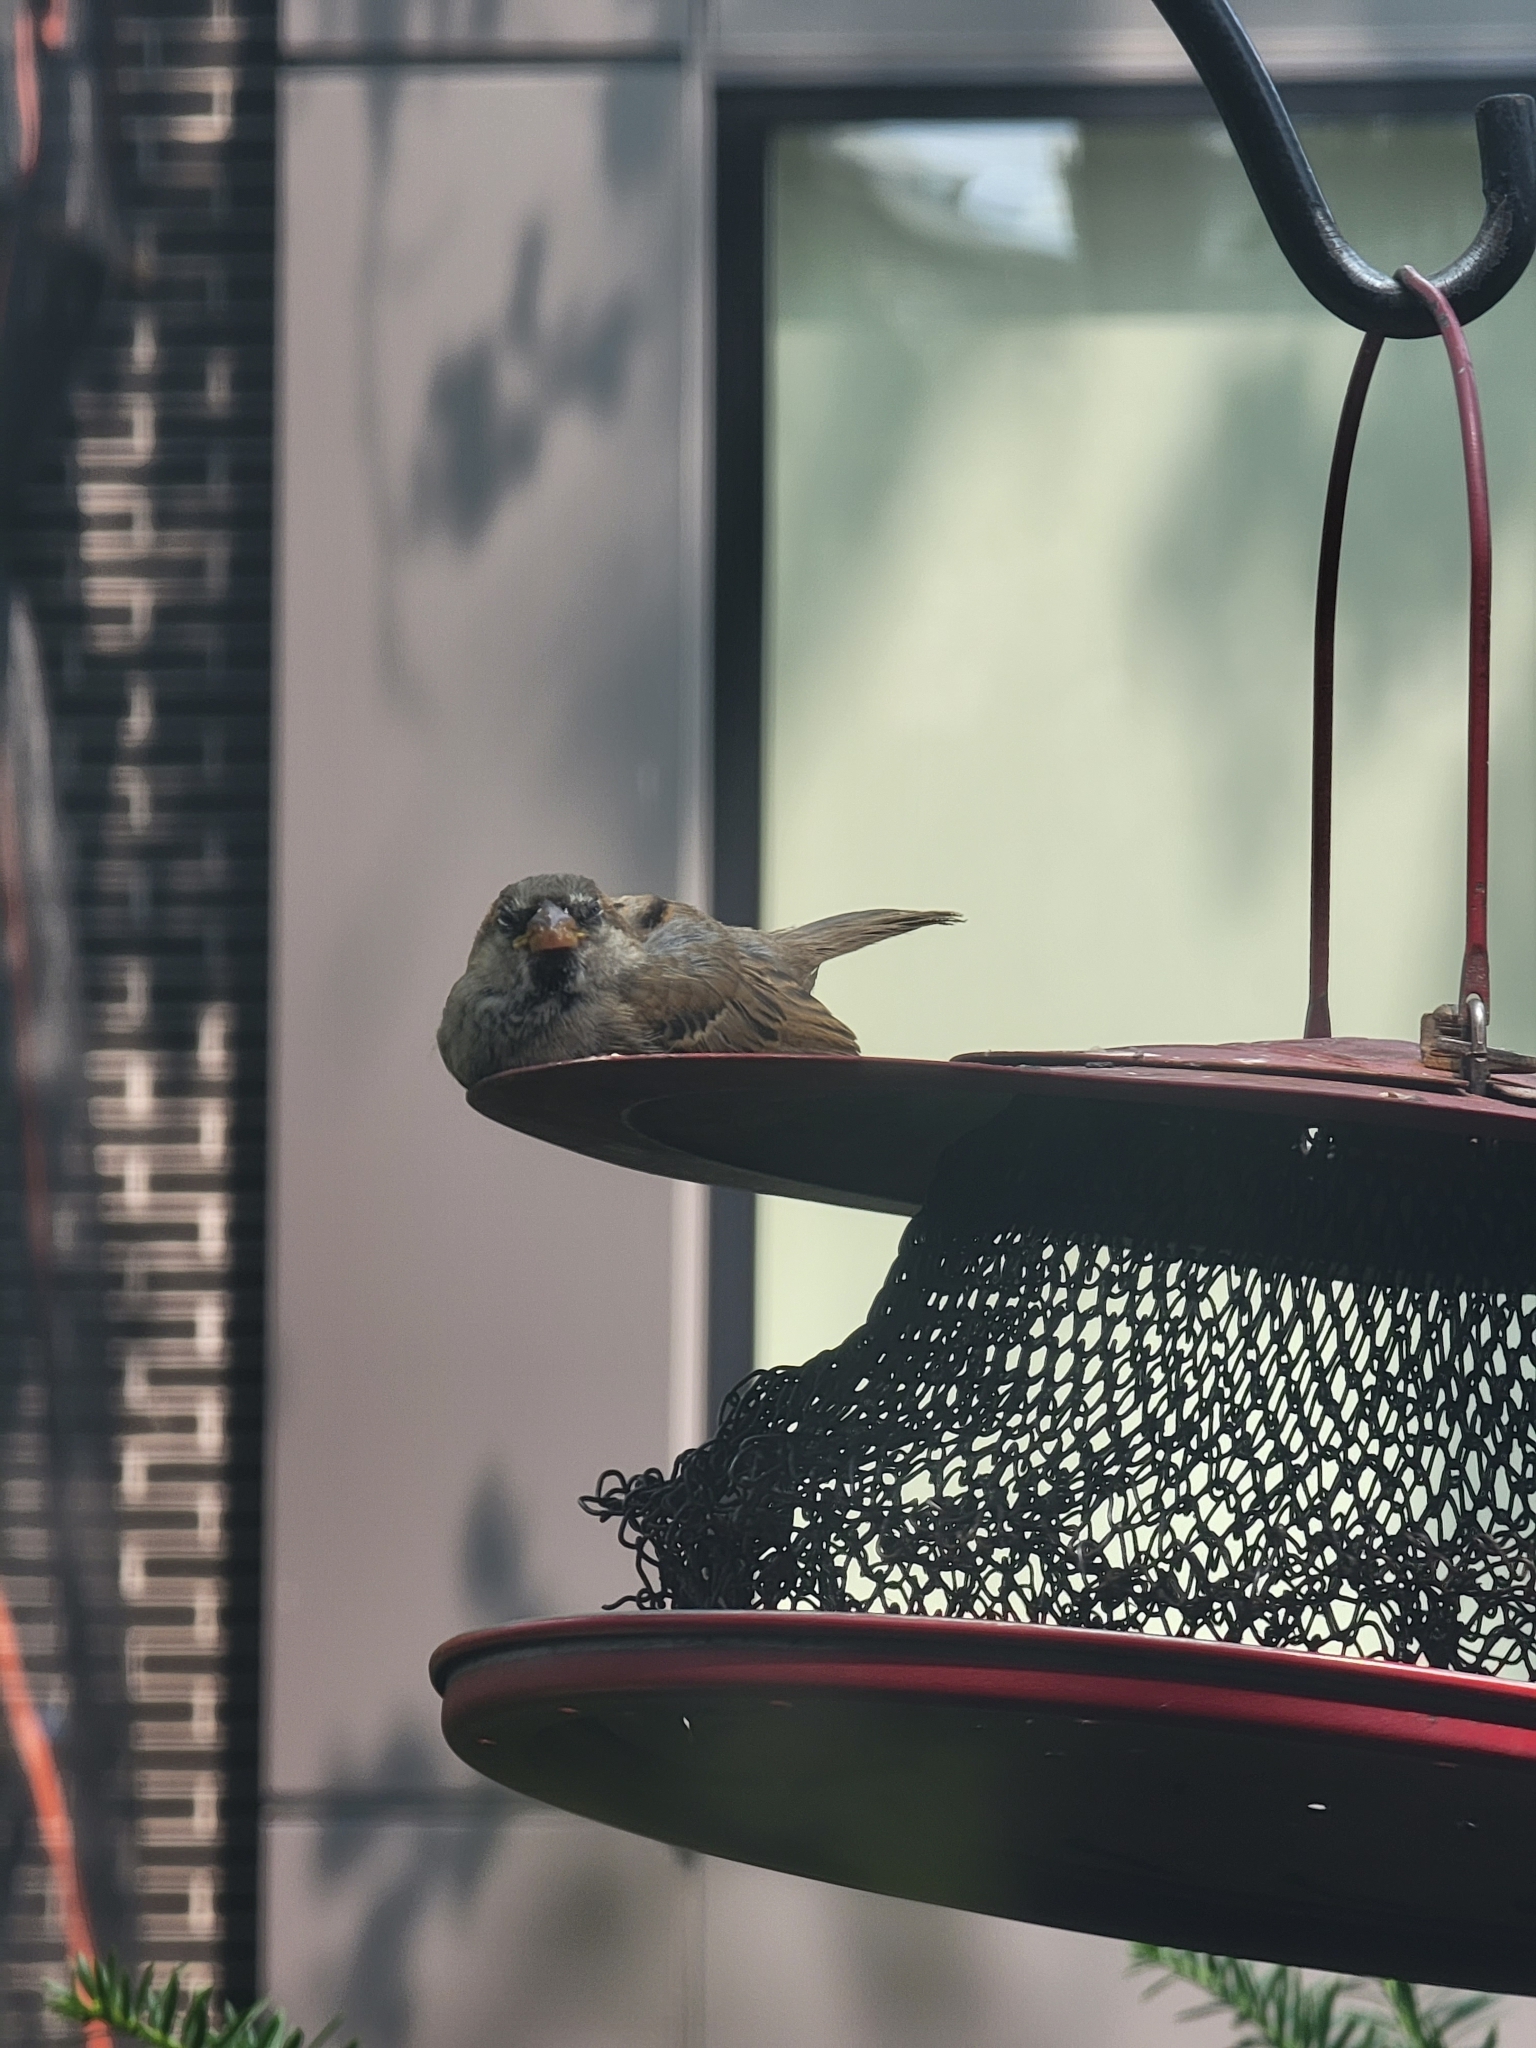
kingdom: Animalia
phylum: Chordata
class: Aves
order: Passeriformes
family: Passeridae
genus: Passer
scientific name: Passer domesticus
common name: House sparrow
